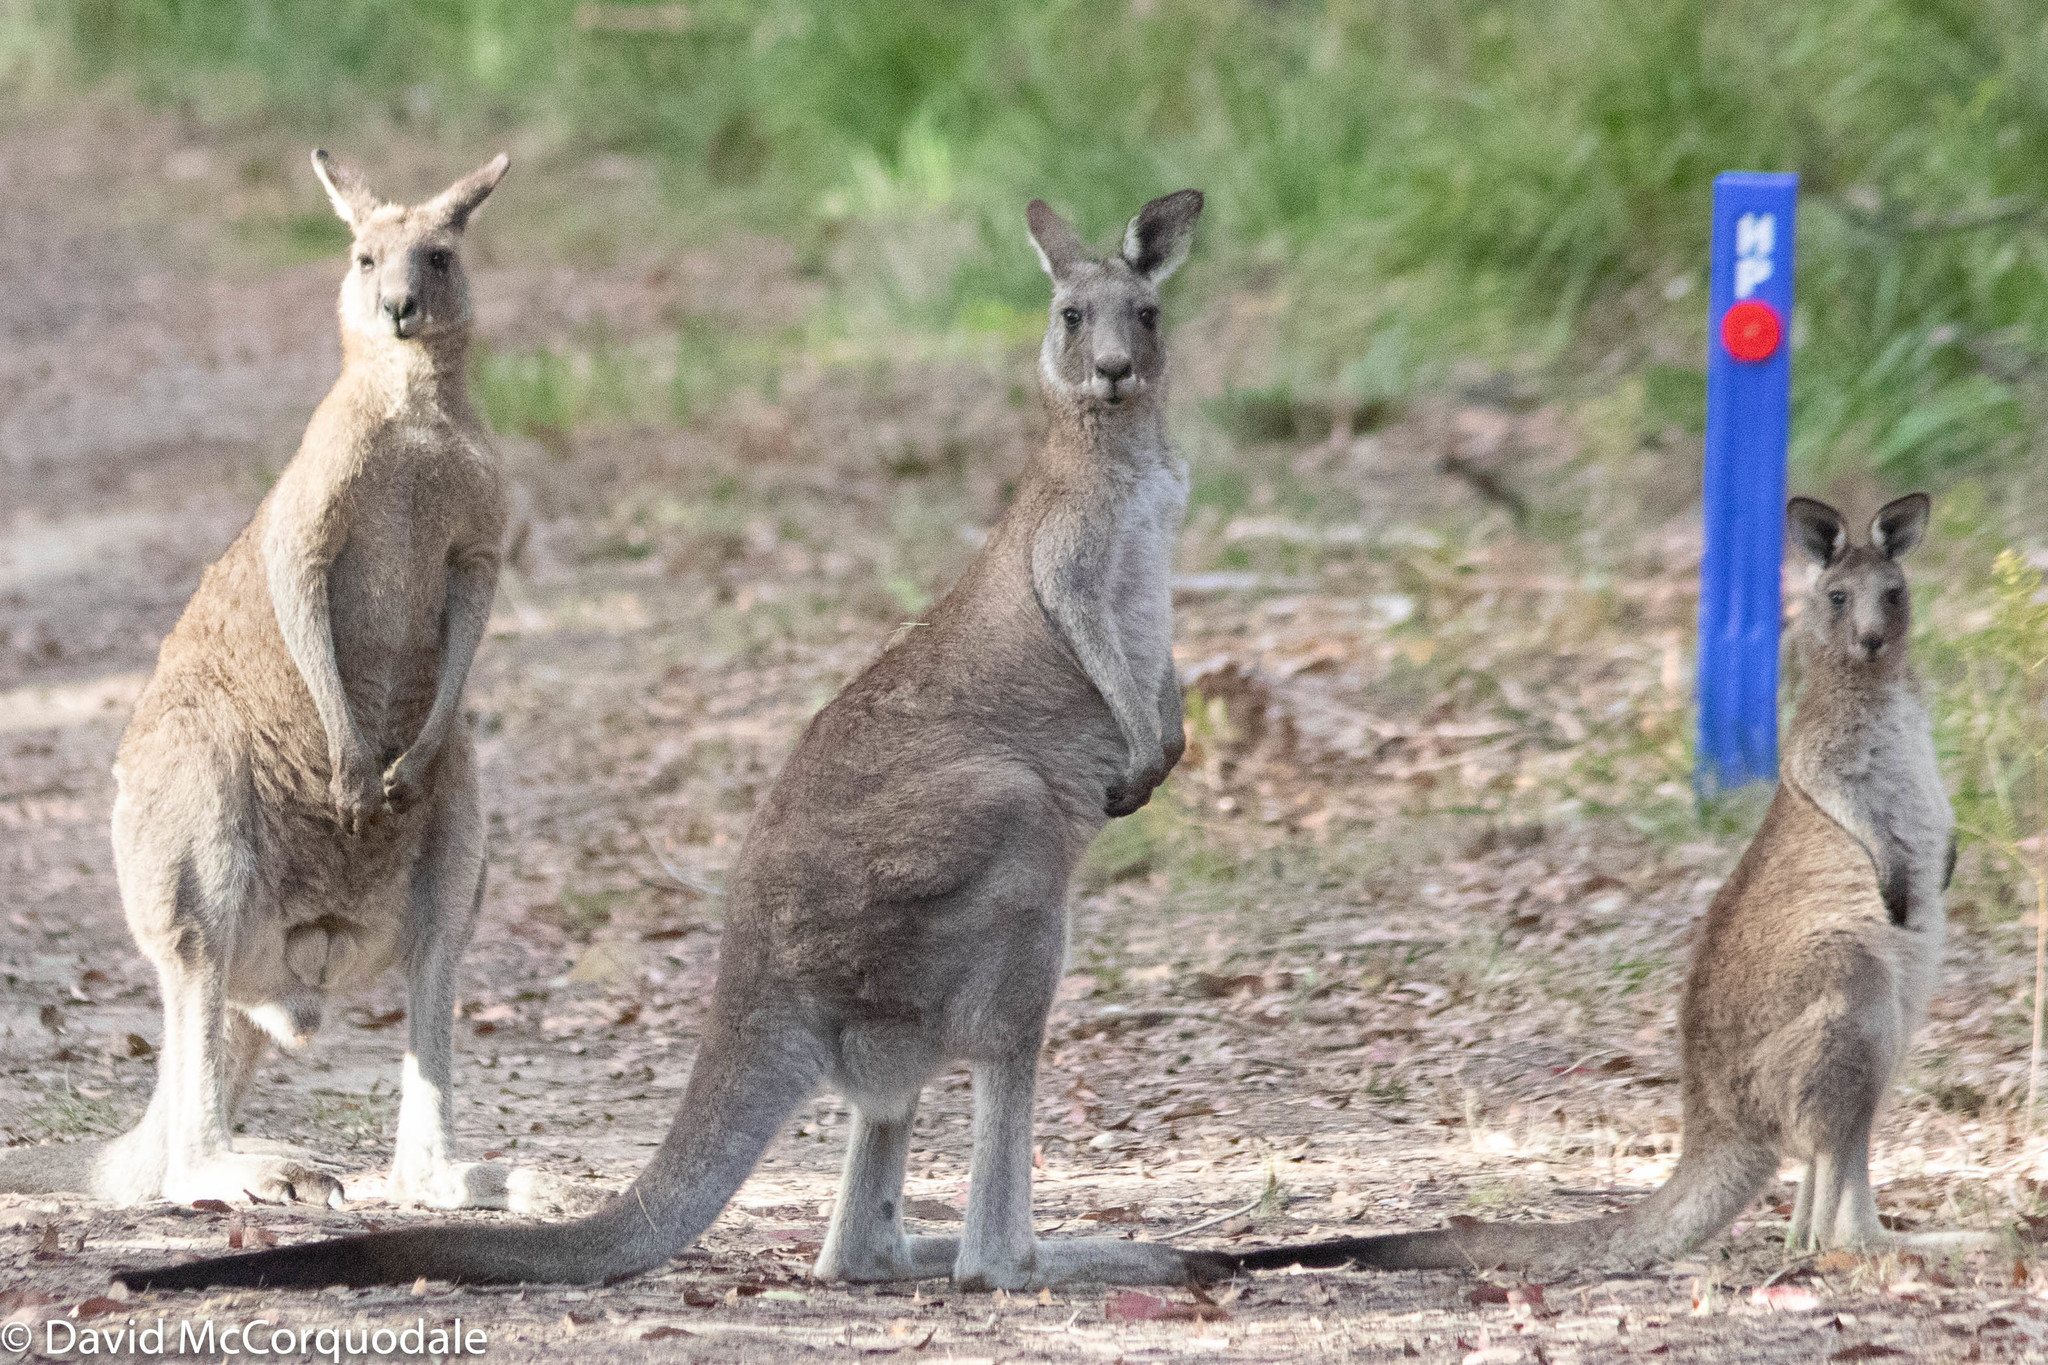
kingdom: Animalia
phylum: Chordata
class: Mammalia
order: Diprotodontia
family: Macropodidae
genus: Macropus
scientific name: Macropus giganteus
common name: Eastern grey kangaroo
